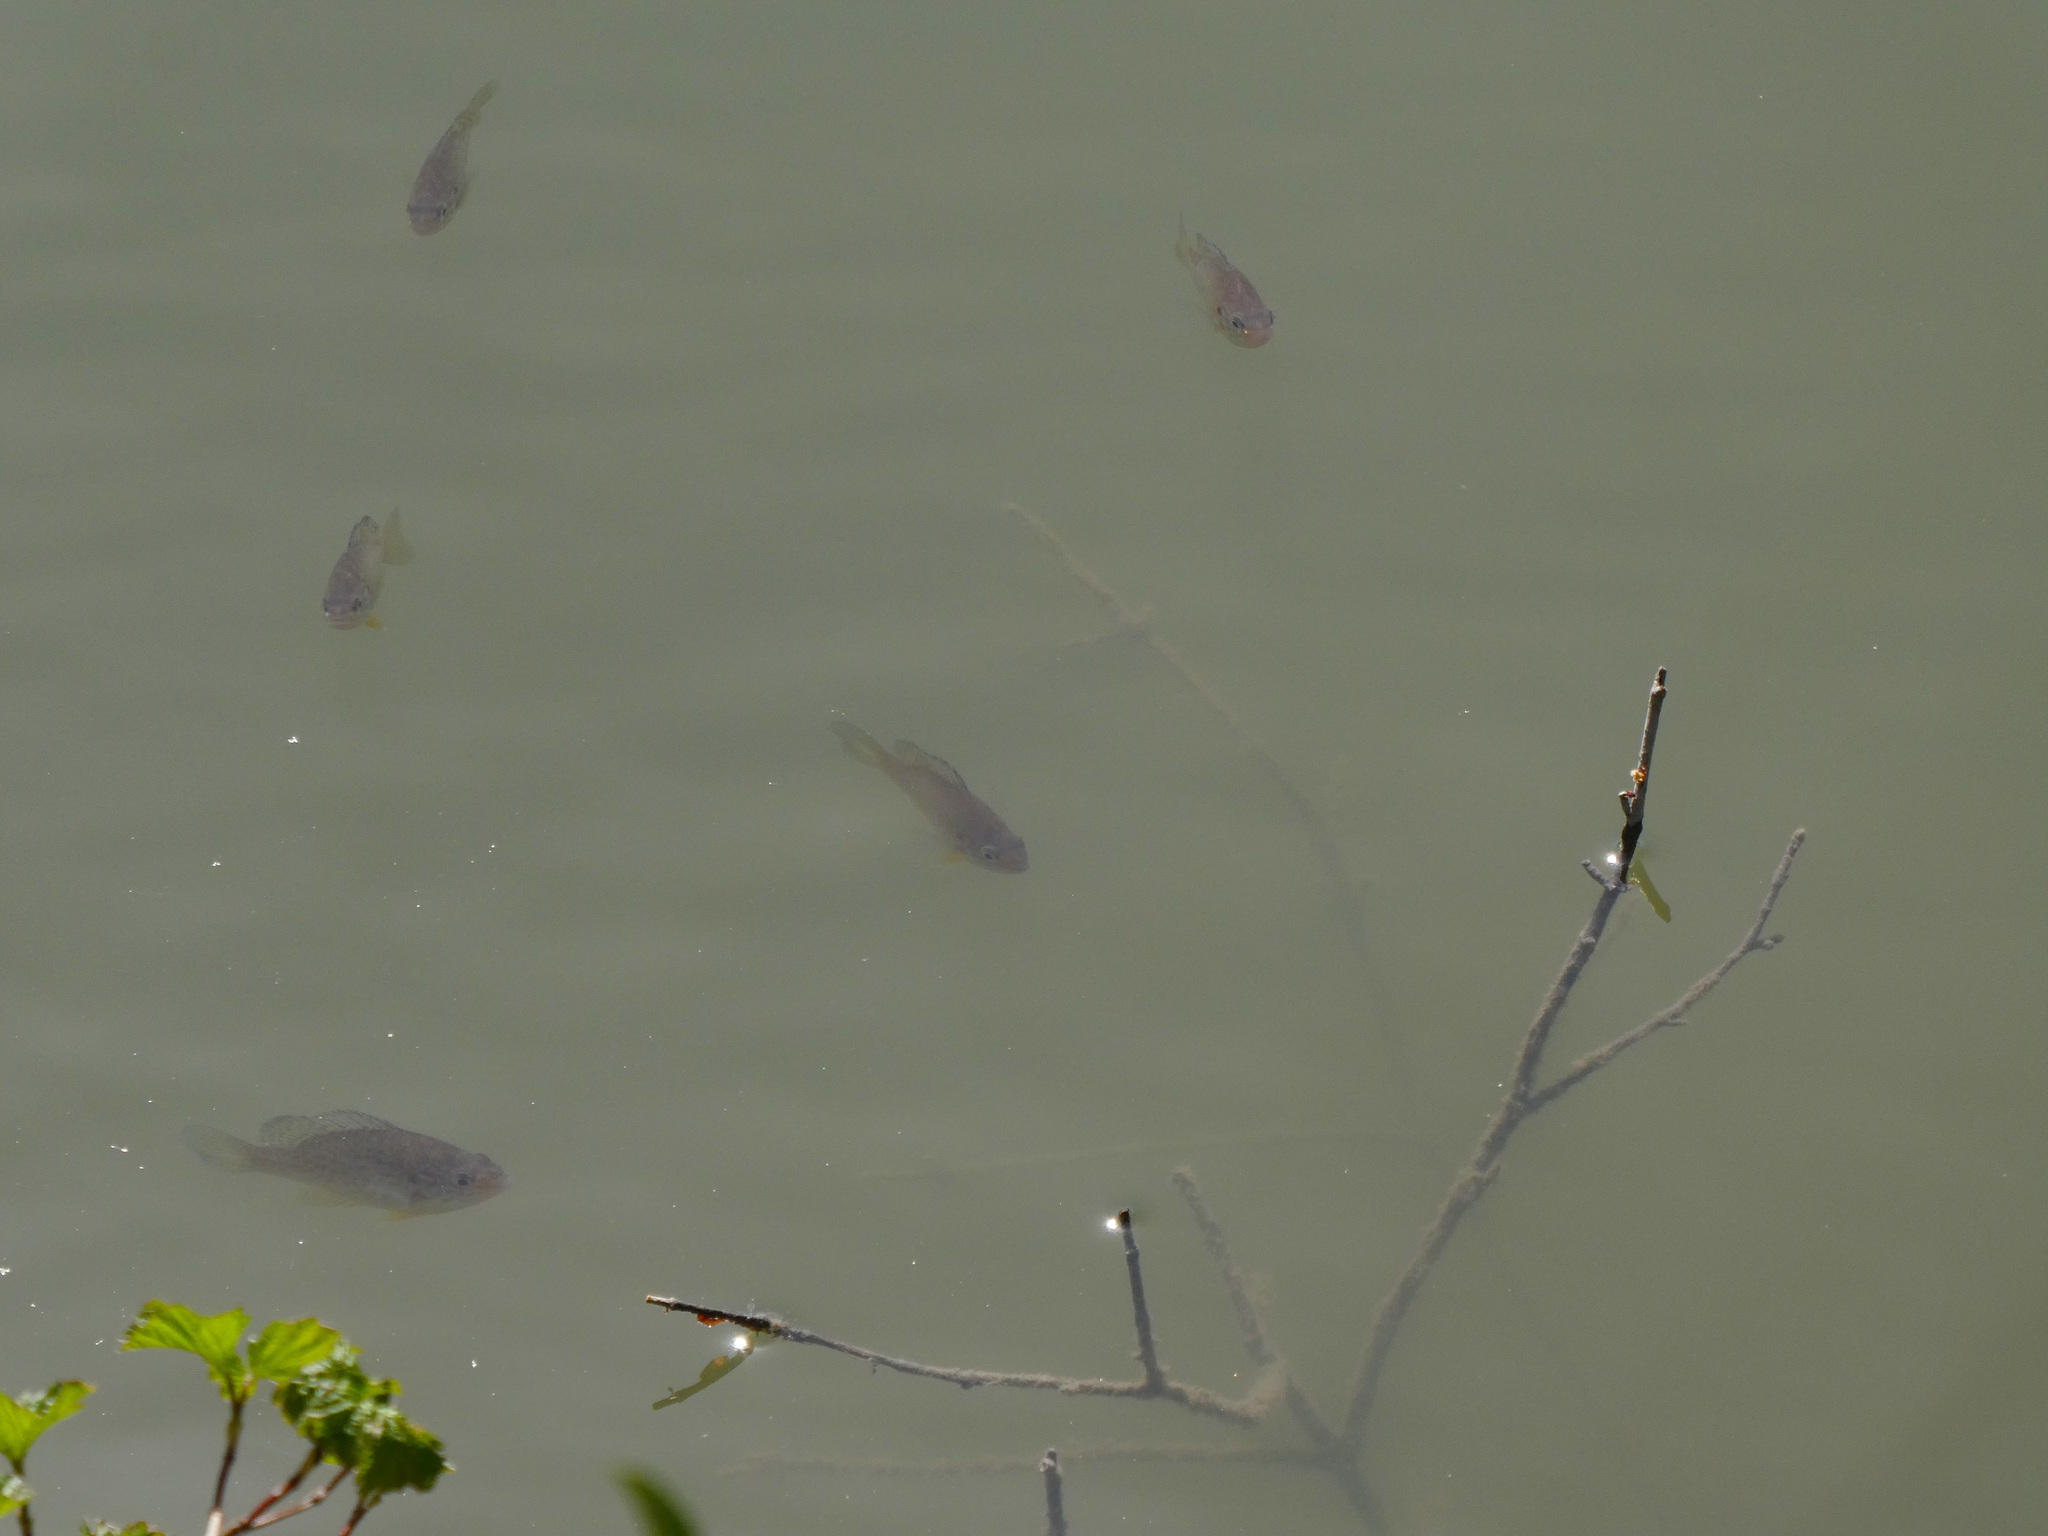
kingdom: Animalia
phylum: Chordata
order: Perciformes
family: Centrarchidae
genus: Lepomis
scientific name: Lepomis gibbosus
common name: Pumpkinseed
